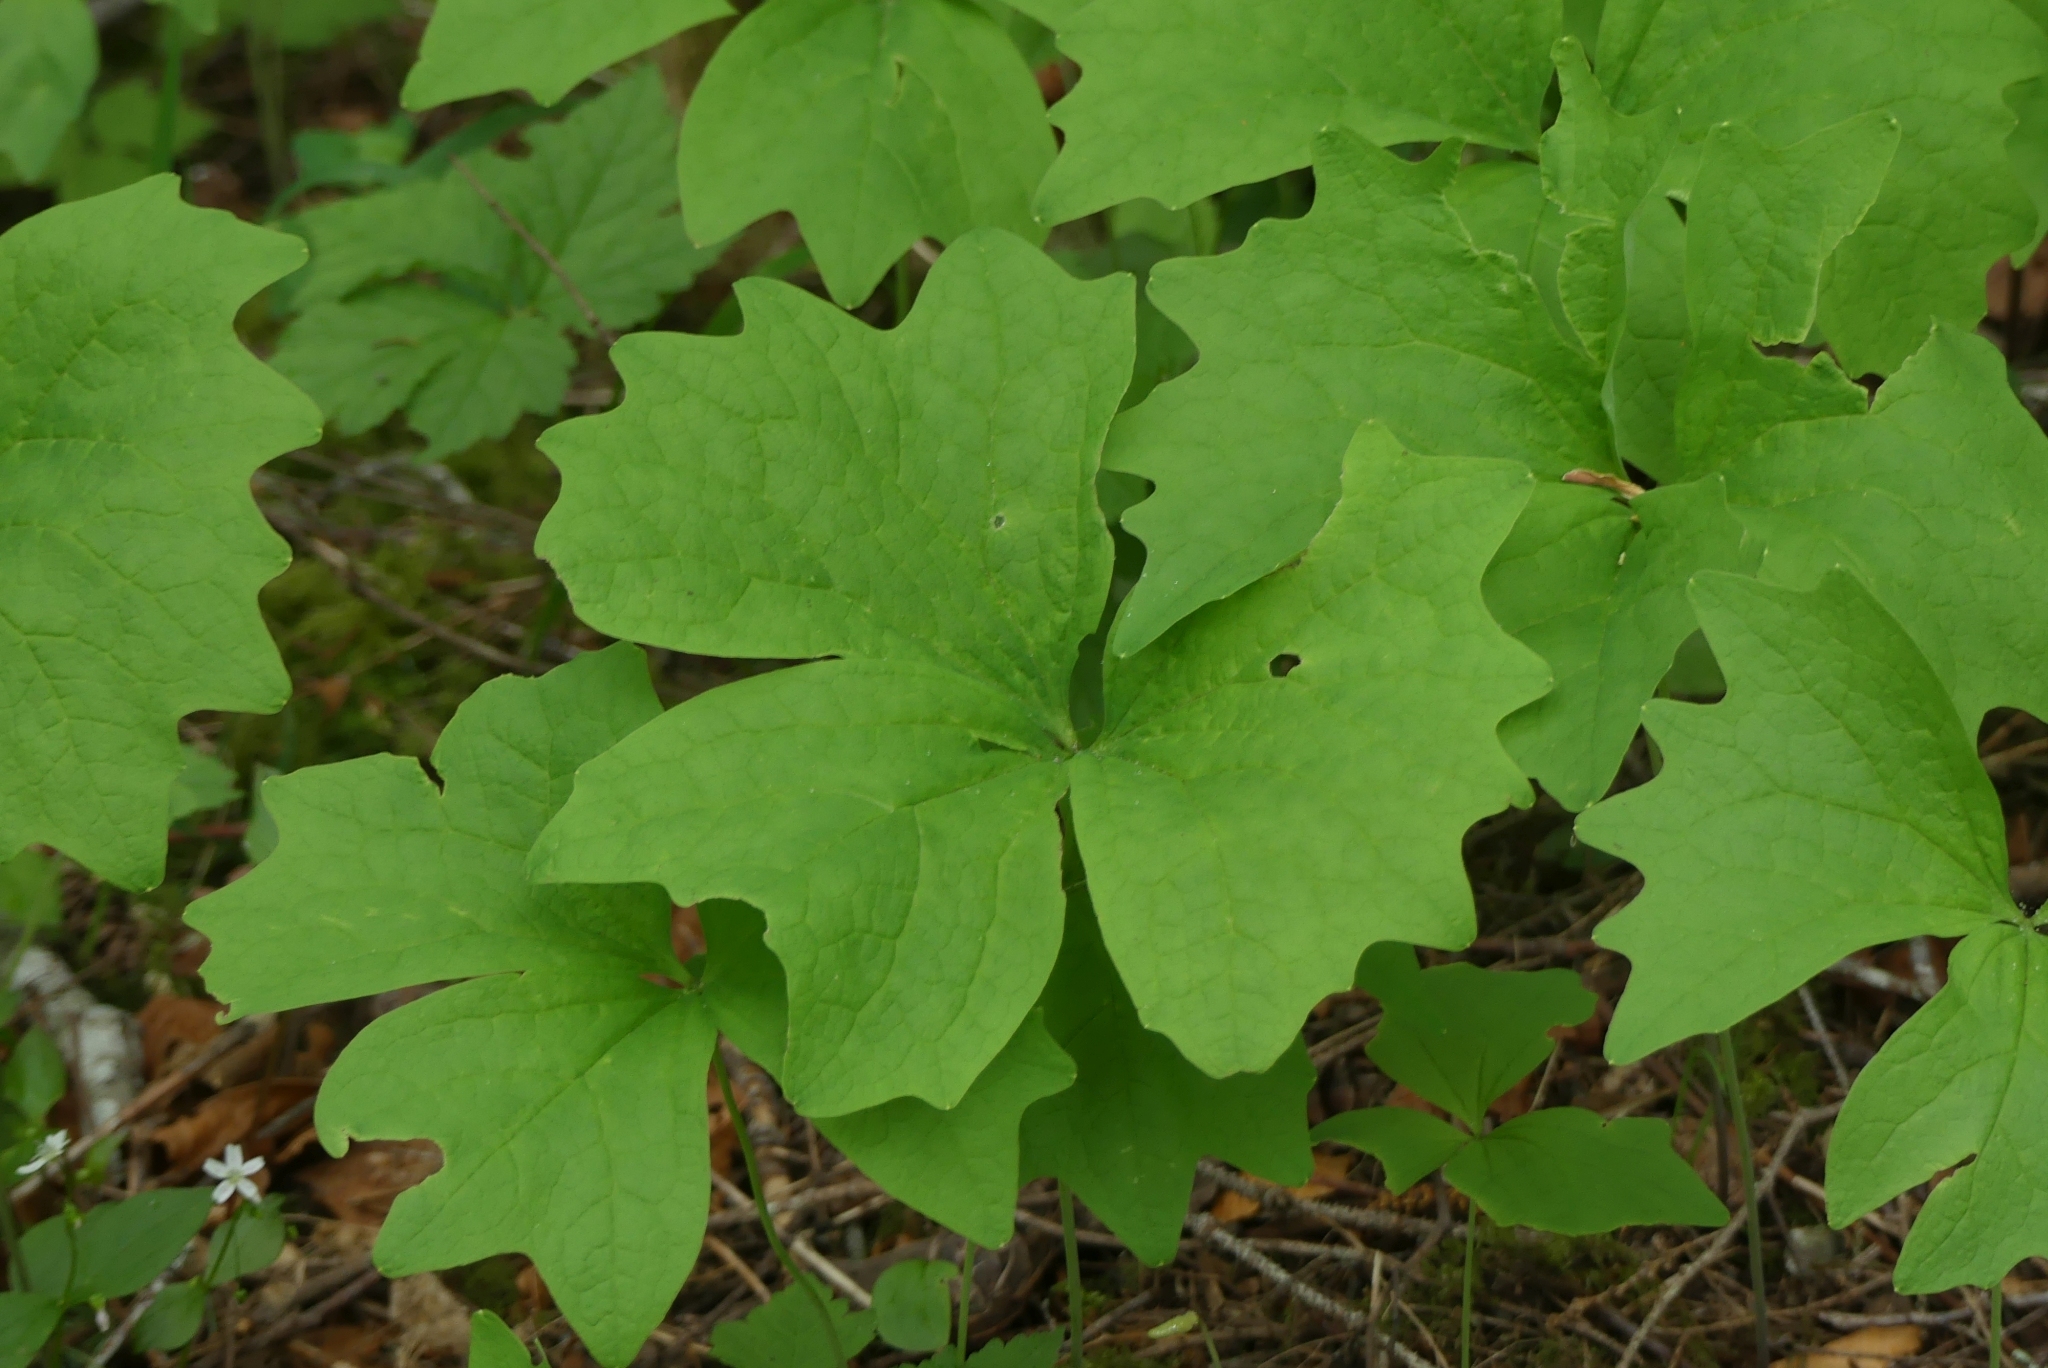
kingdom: Plantae
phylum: Tracheophyta
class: Magnoliopsida
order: Ranunculales
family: Berberidaceae
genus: Achlys
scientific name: Achlys triphylla
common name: Vanilla-leaf
